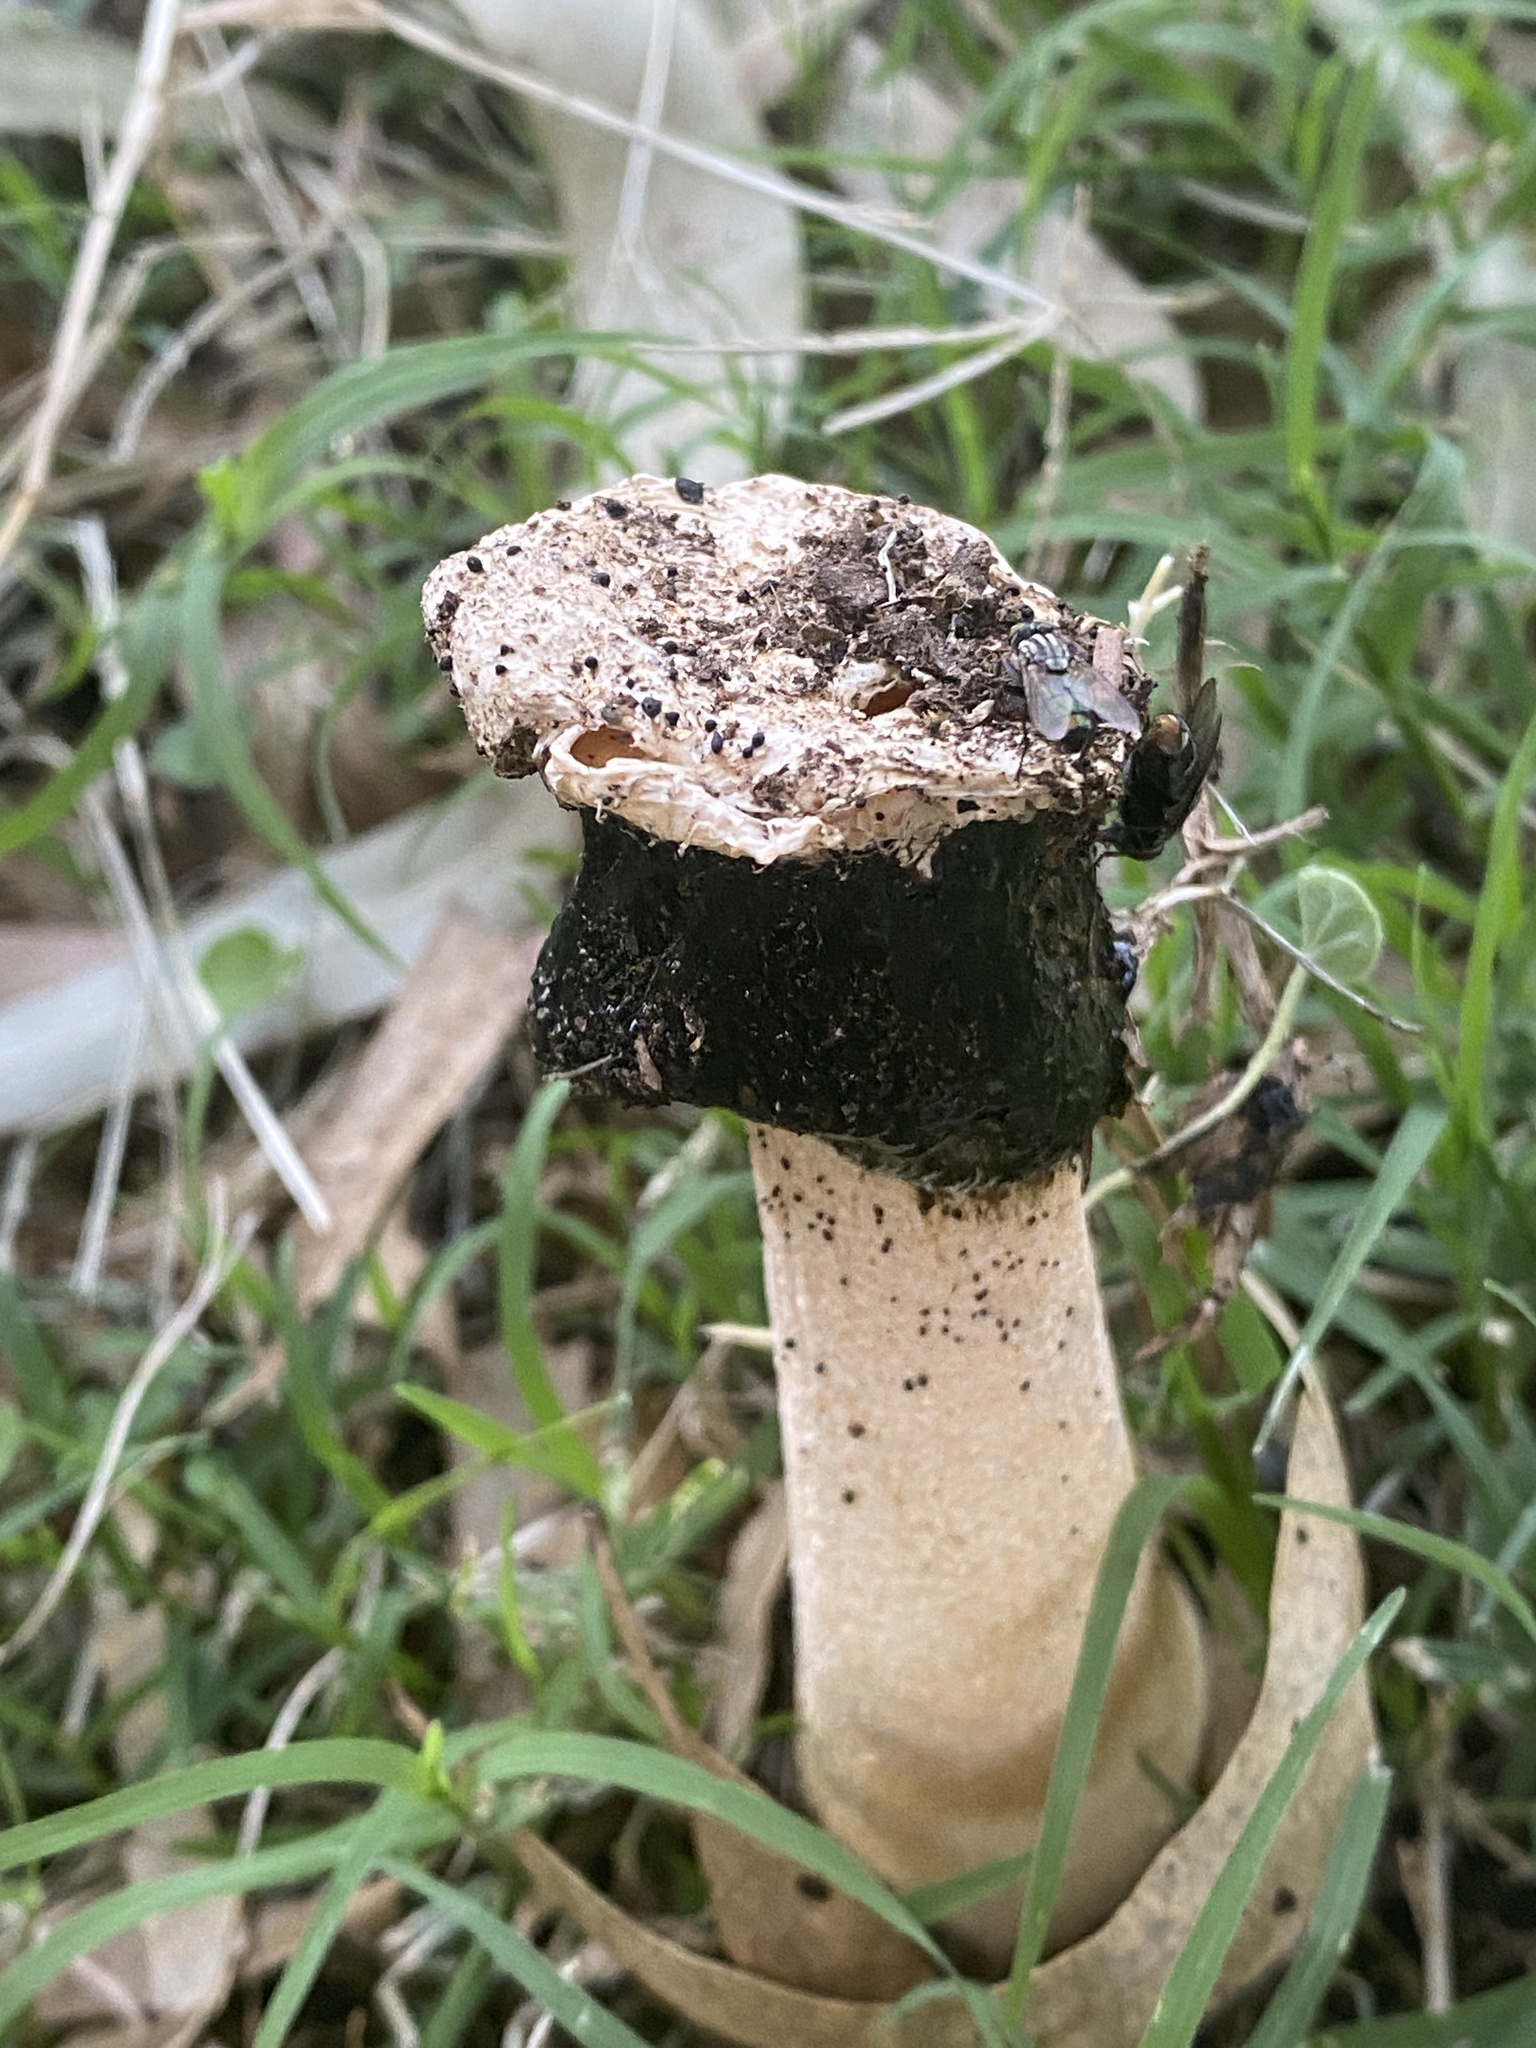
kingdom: Fungi
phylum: Basidiomycota
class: Agaricomycetes
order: Phallales
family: Phallaceae
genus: Itajahya
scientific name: Itajahya galericulata
